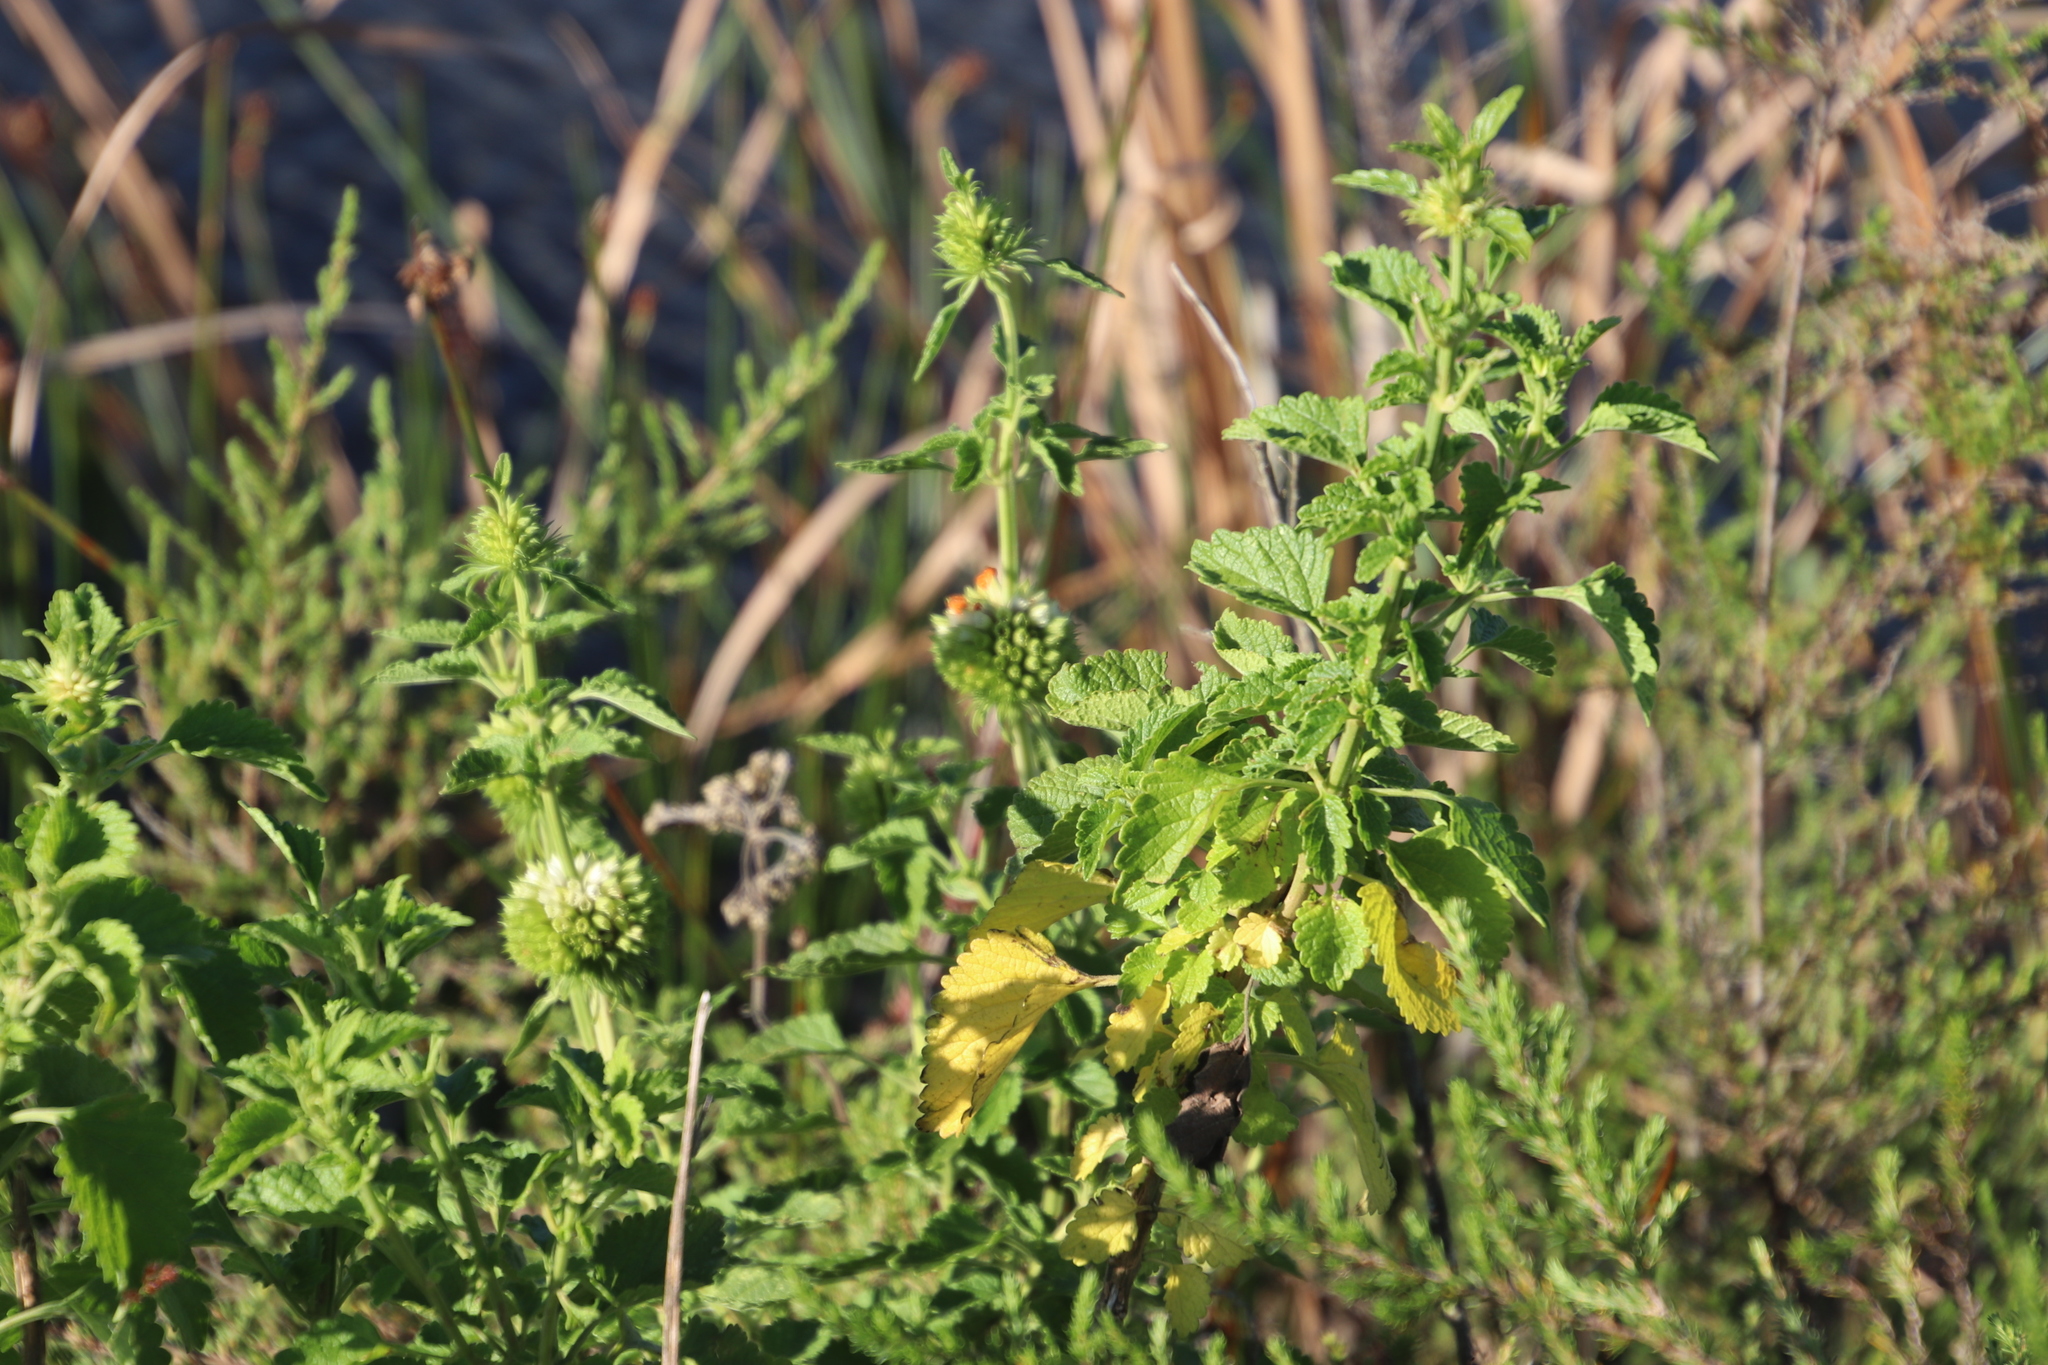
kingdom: Plantae
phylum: Tracheophyta
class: Magnoliopsida
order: Lamiales
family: Lamiaceae
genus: Leonotis
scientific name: Leonotis ocymifolia
